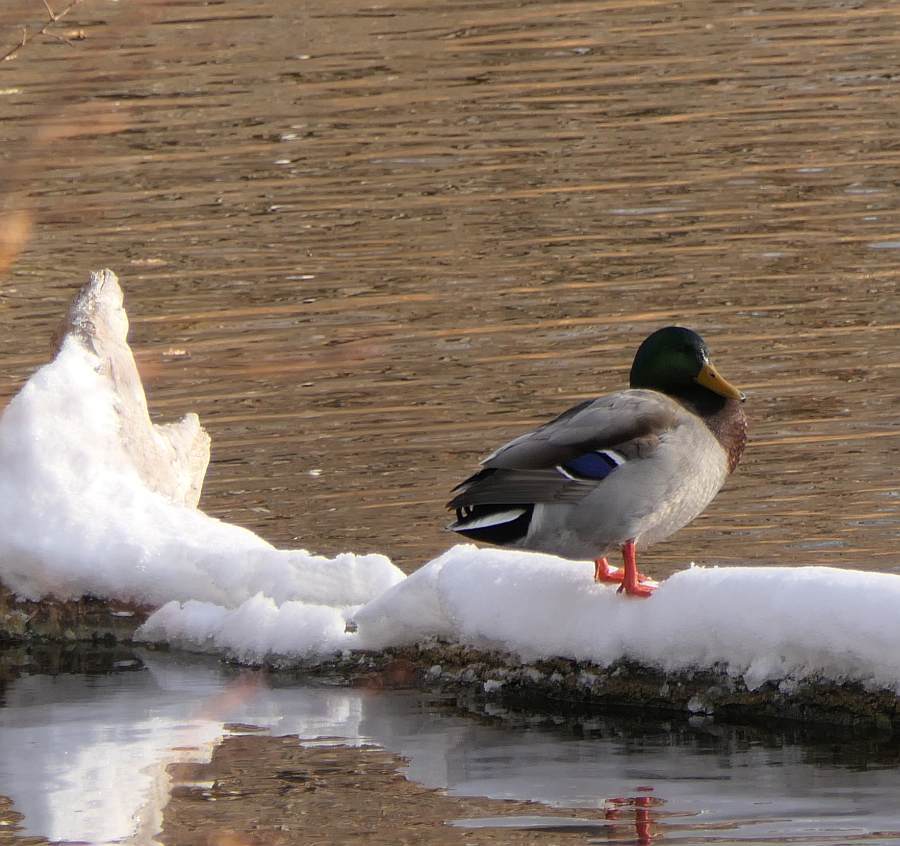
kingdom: Animalia
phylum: Chordata
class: Aves
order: Anseriformes
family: Anatidae
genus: Anas
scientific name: Anas platyrhynchos
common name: Mallard
